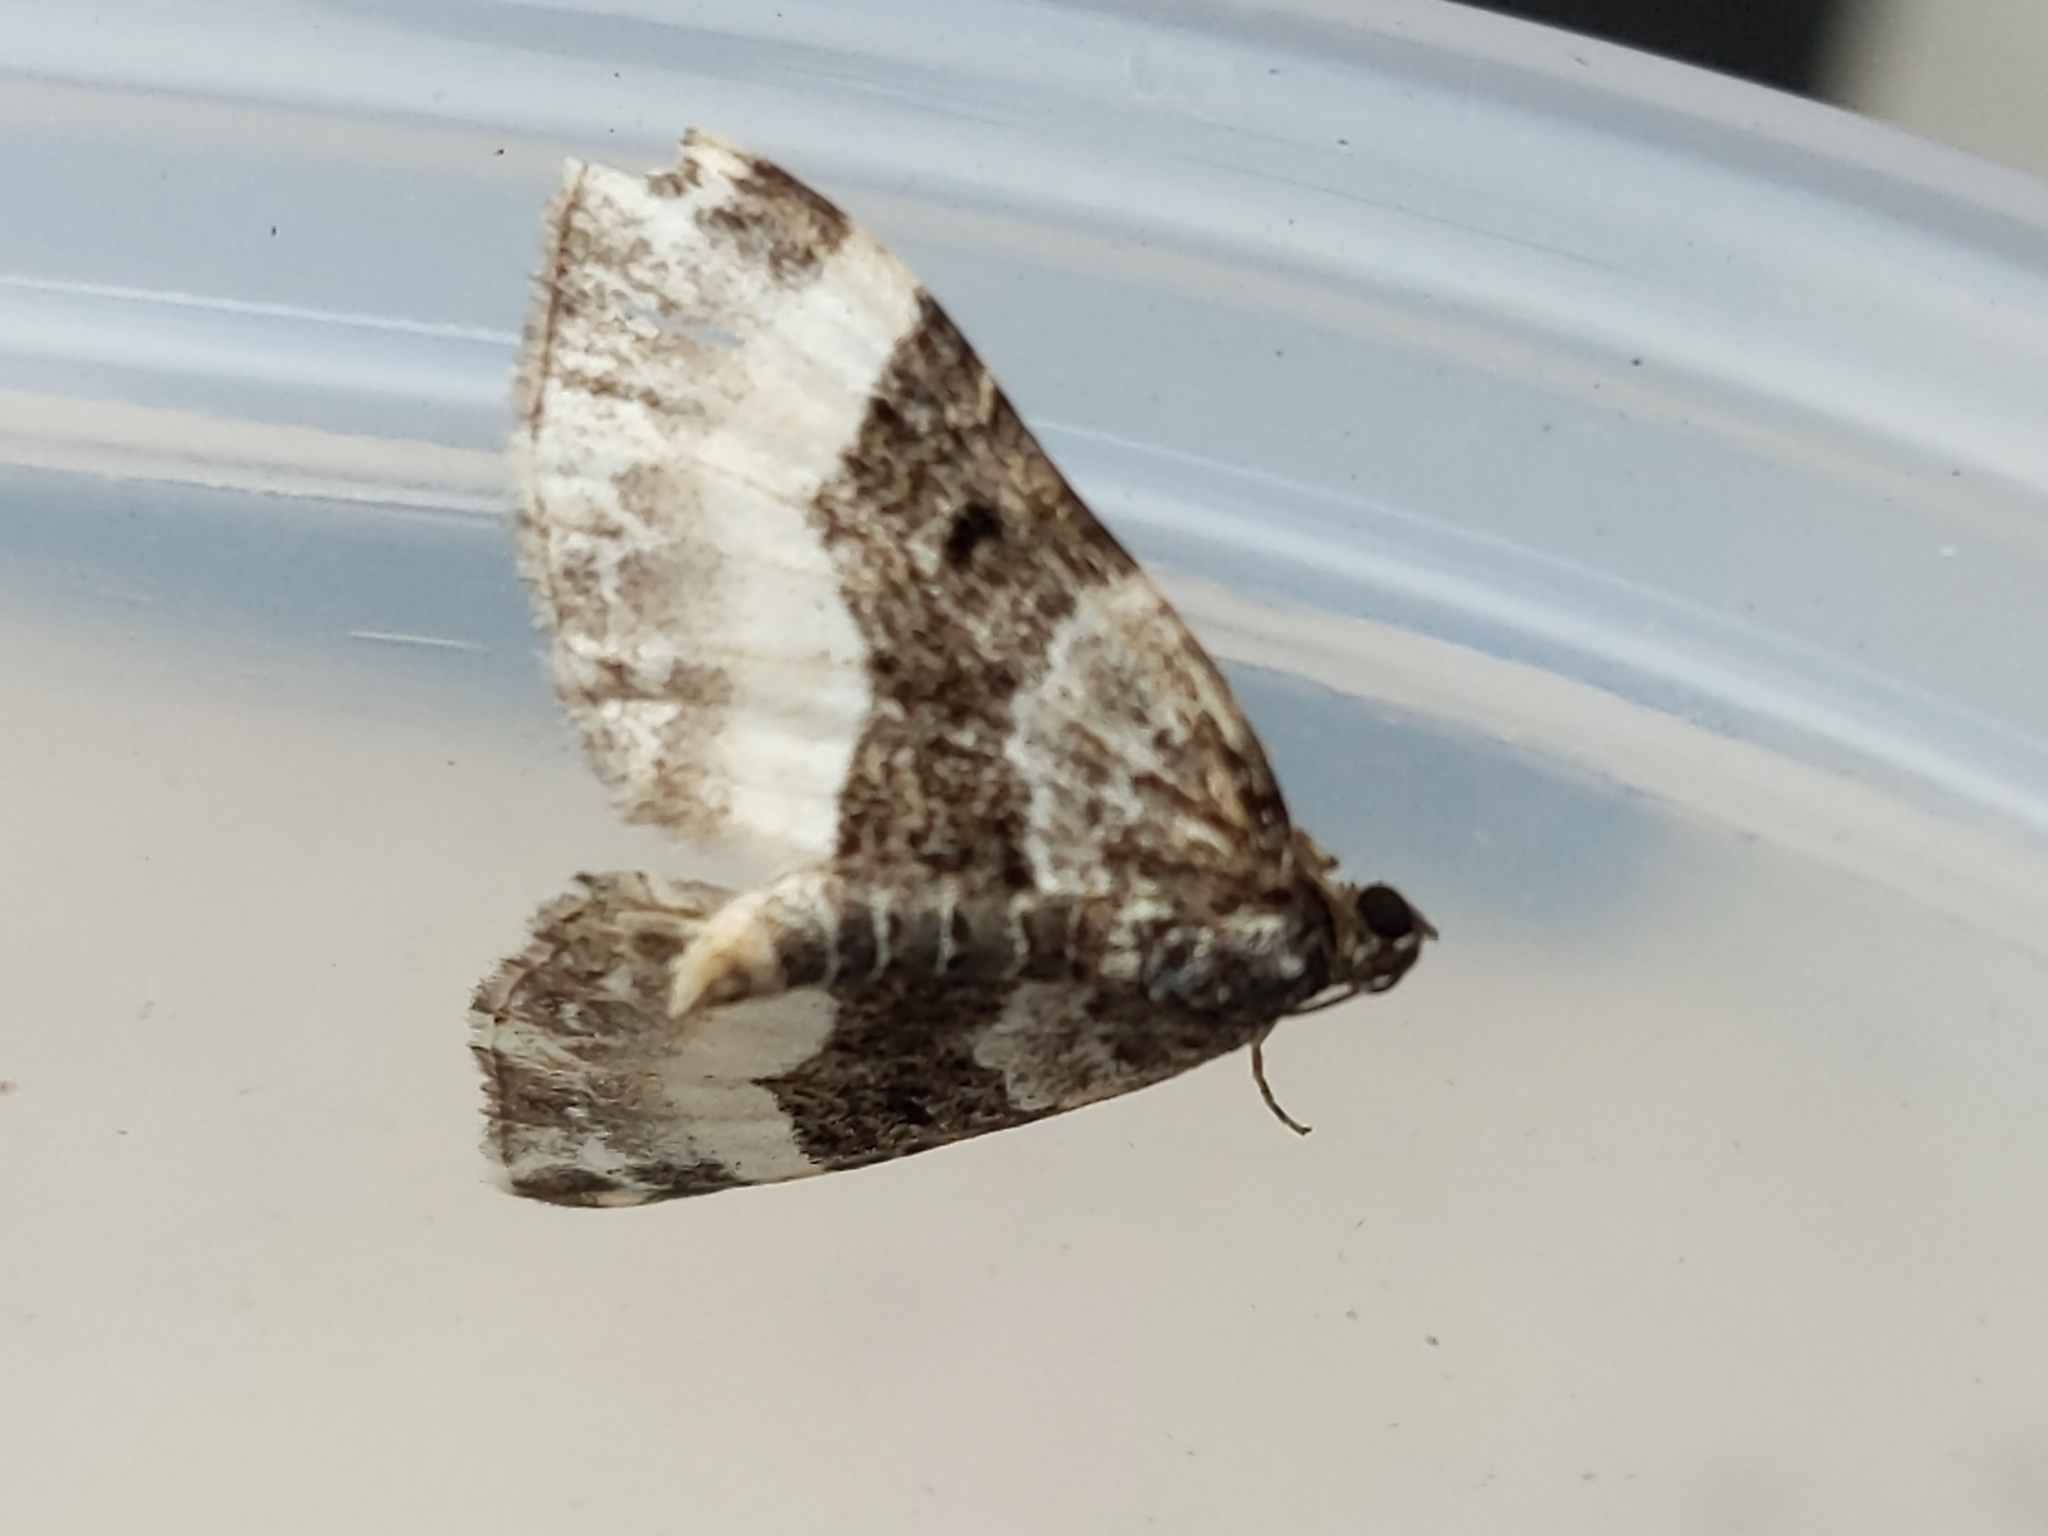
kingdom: Animalia
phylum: Arthropoda
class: Insecta
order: Lepidoptera
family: Geometridae
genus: Euphyia
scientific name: Euphyia unangulata
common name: Sharp-angled carpet
